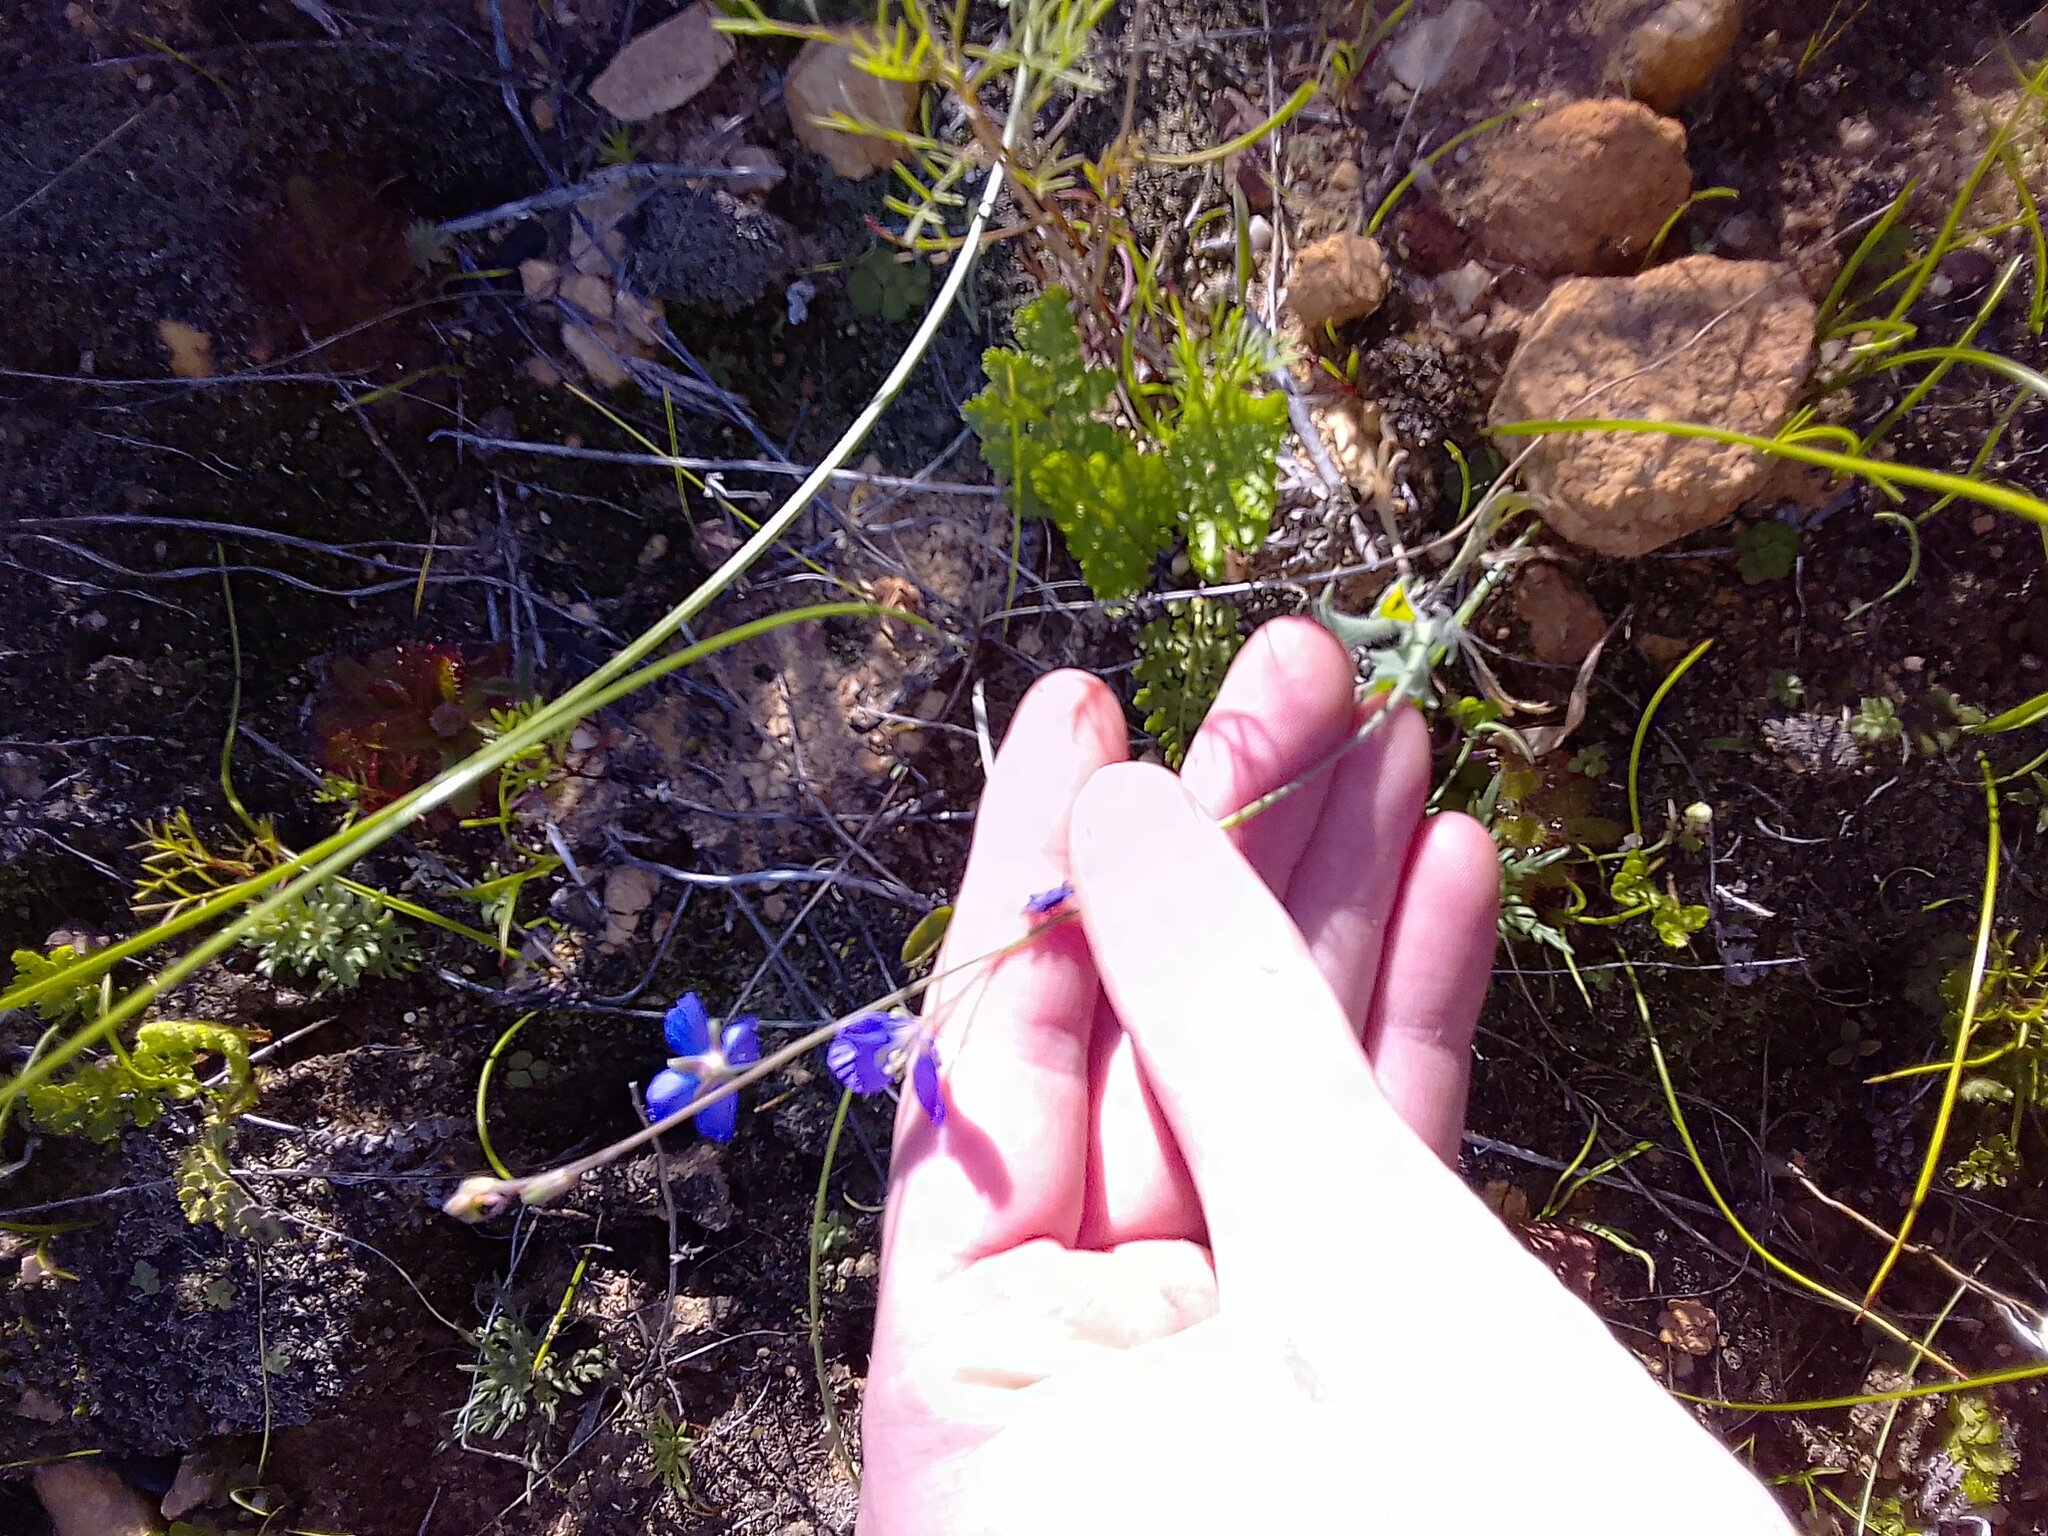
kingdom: Plantae
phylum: Tracheophyta
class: Magnoliopsida
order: Brassicales
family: Brassicaceae
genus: Heliophila
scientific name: Heliophila africana
